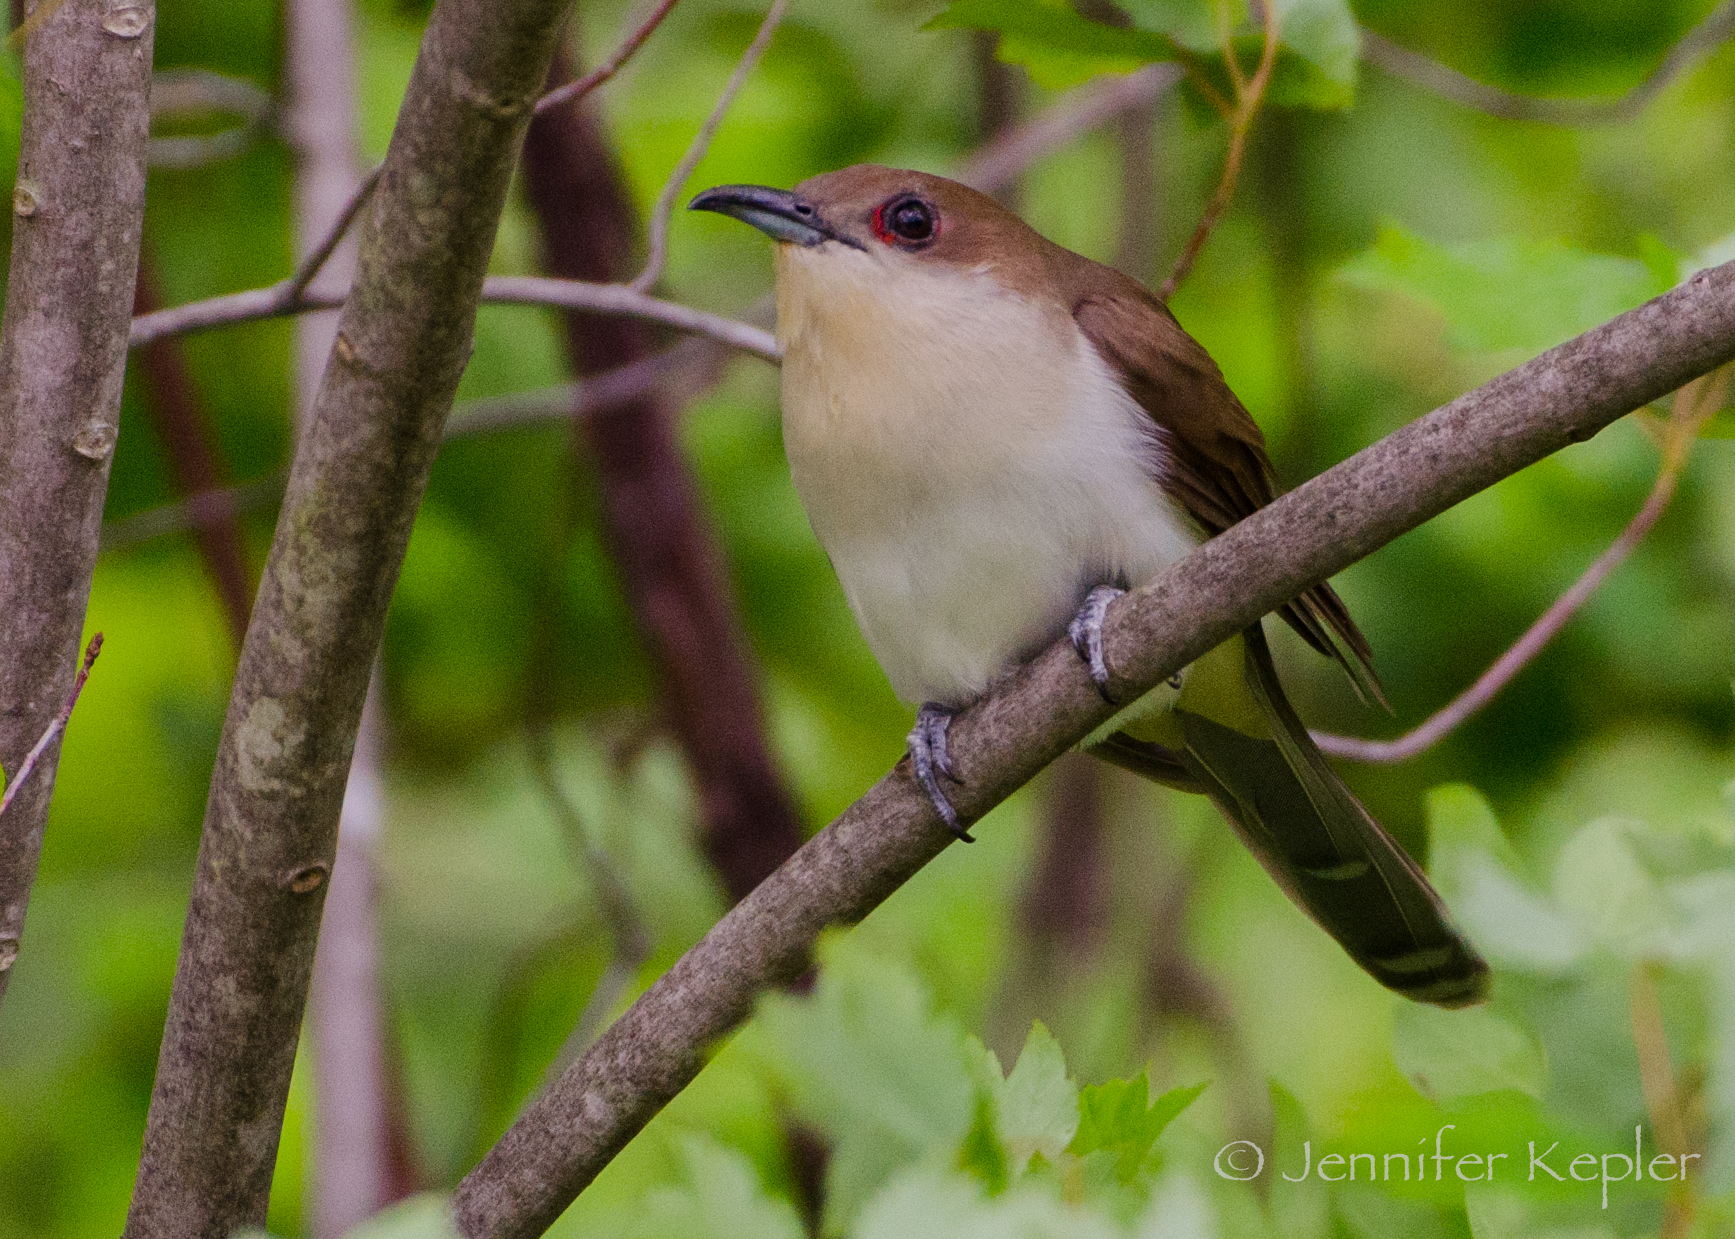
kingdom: Animalia
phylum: Chordata
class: Aves
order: Cuculiformes
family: Cuculidae
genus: Coccyzus
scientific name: Coccyzus erythropthalmus
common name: Black-billed cuckoo
